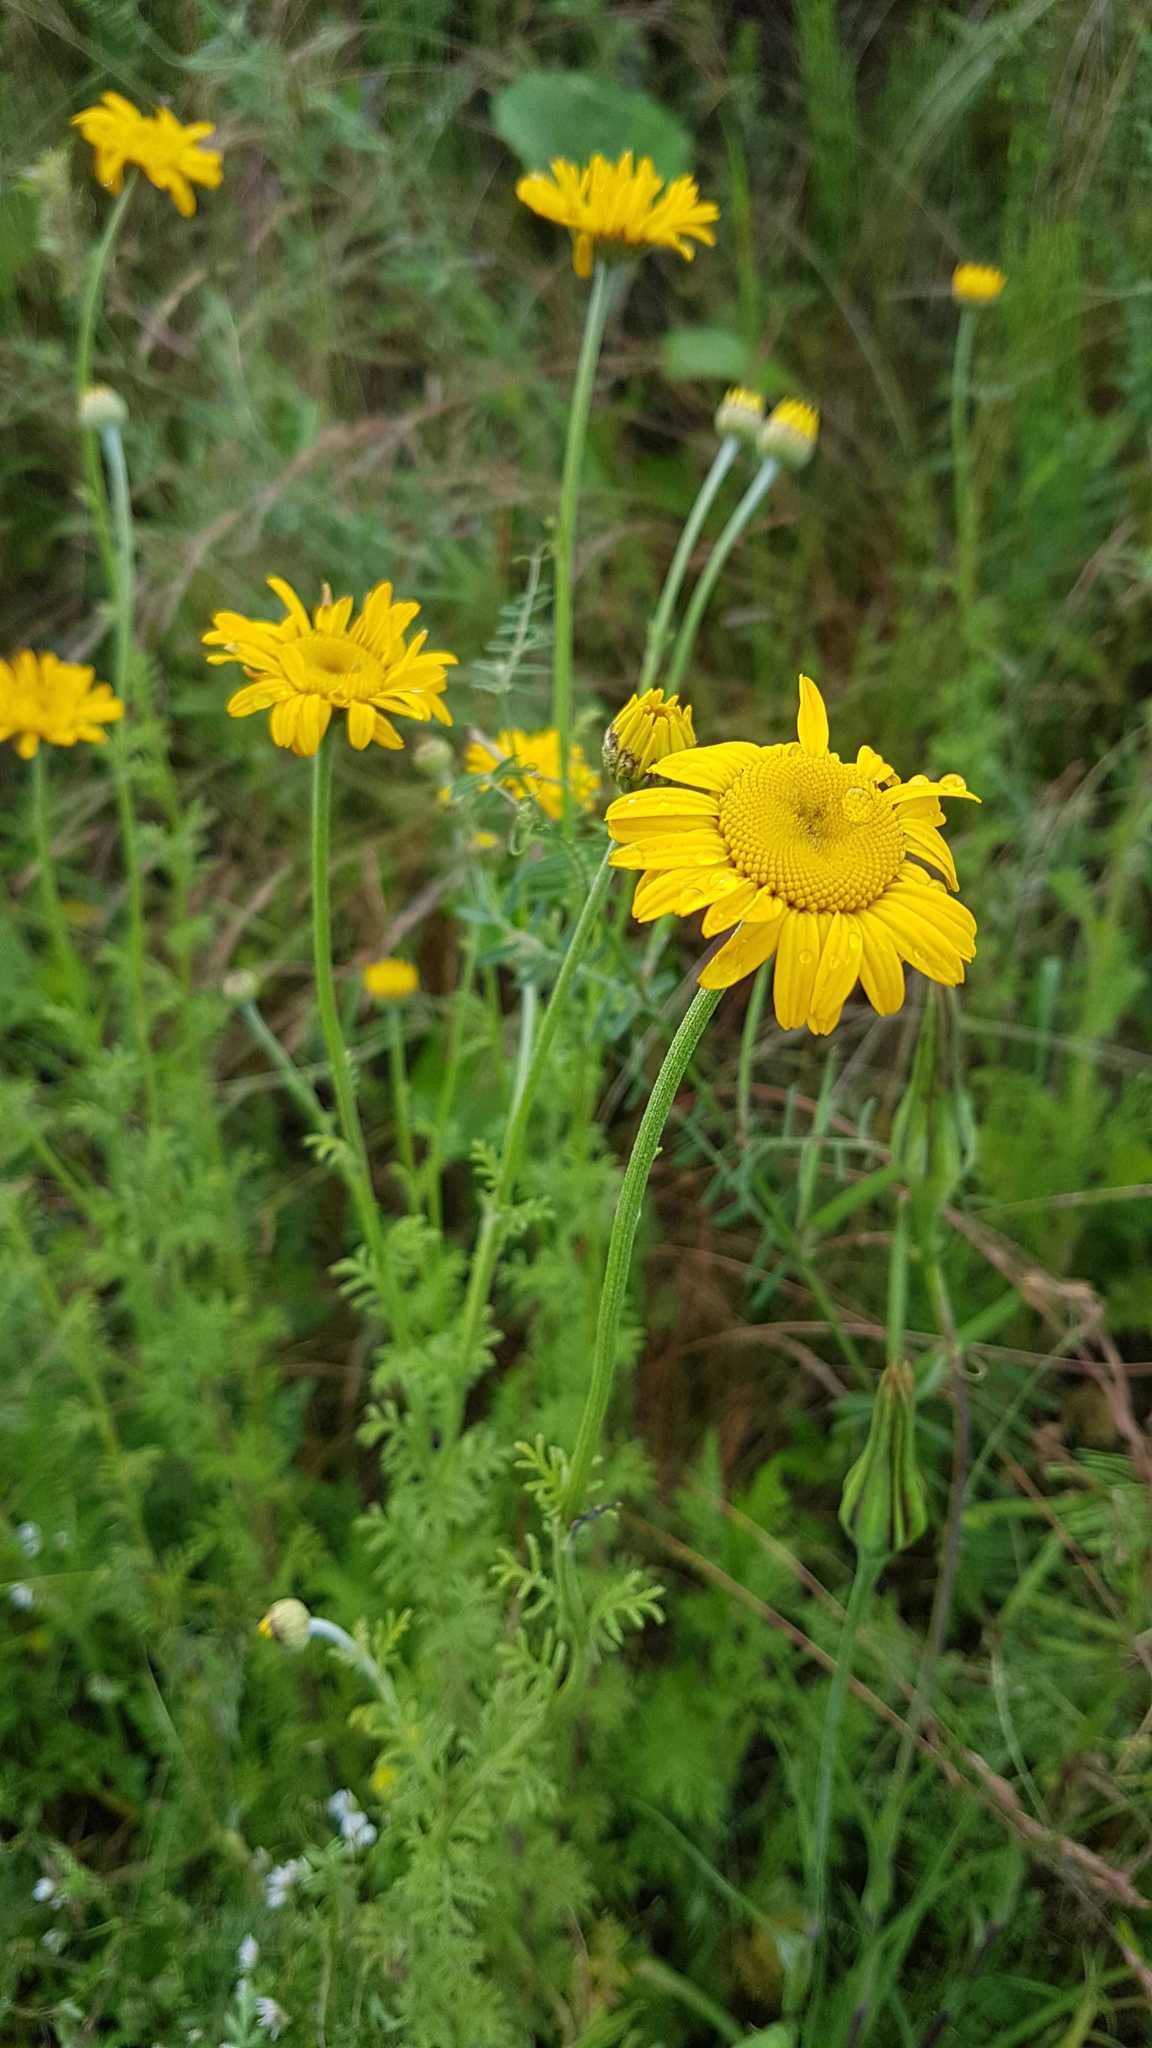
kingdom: Plantae
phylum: Tracheophyta
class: Magnoliopsida
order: Asterales
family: Asteraceae
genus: Cota
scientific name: Cota tinctoria
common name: Golden chamomile
